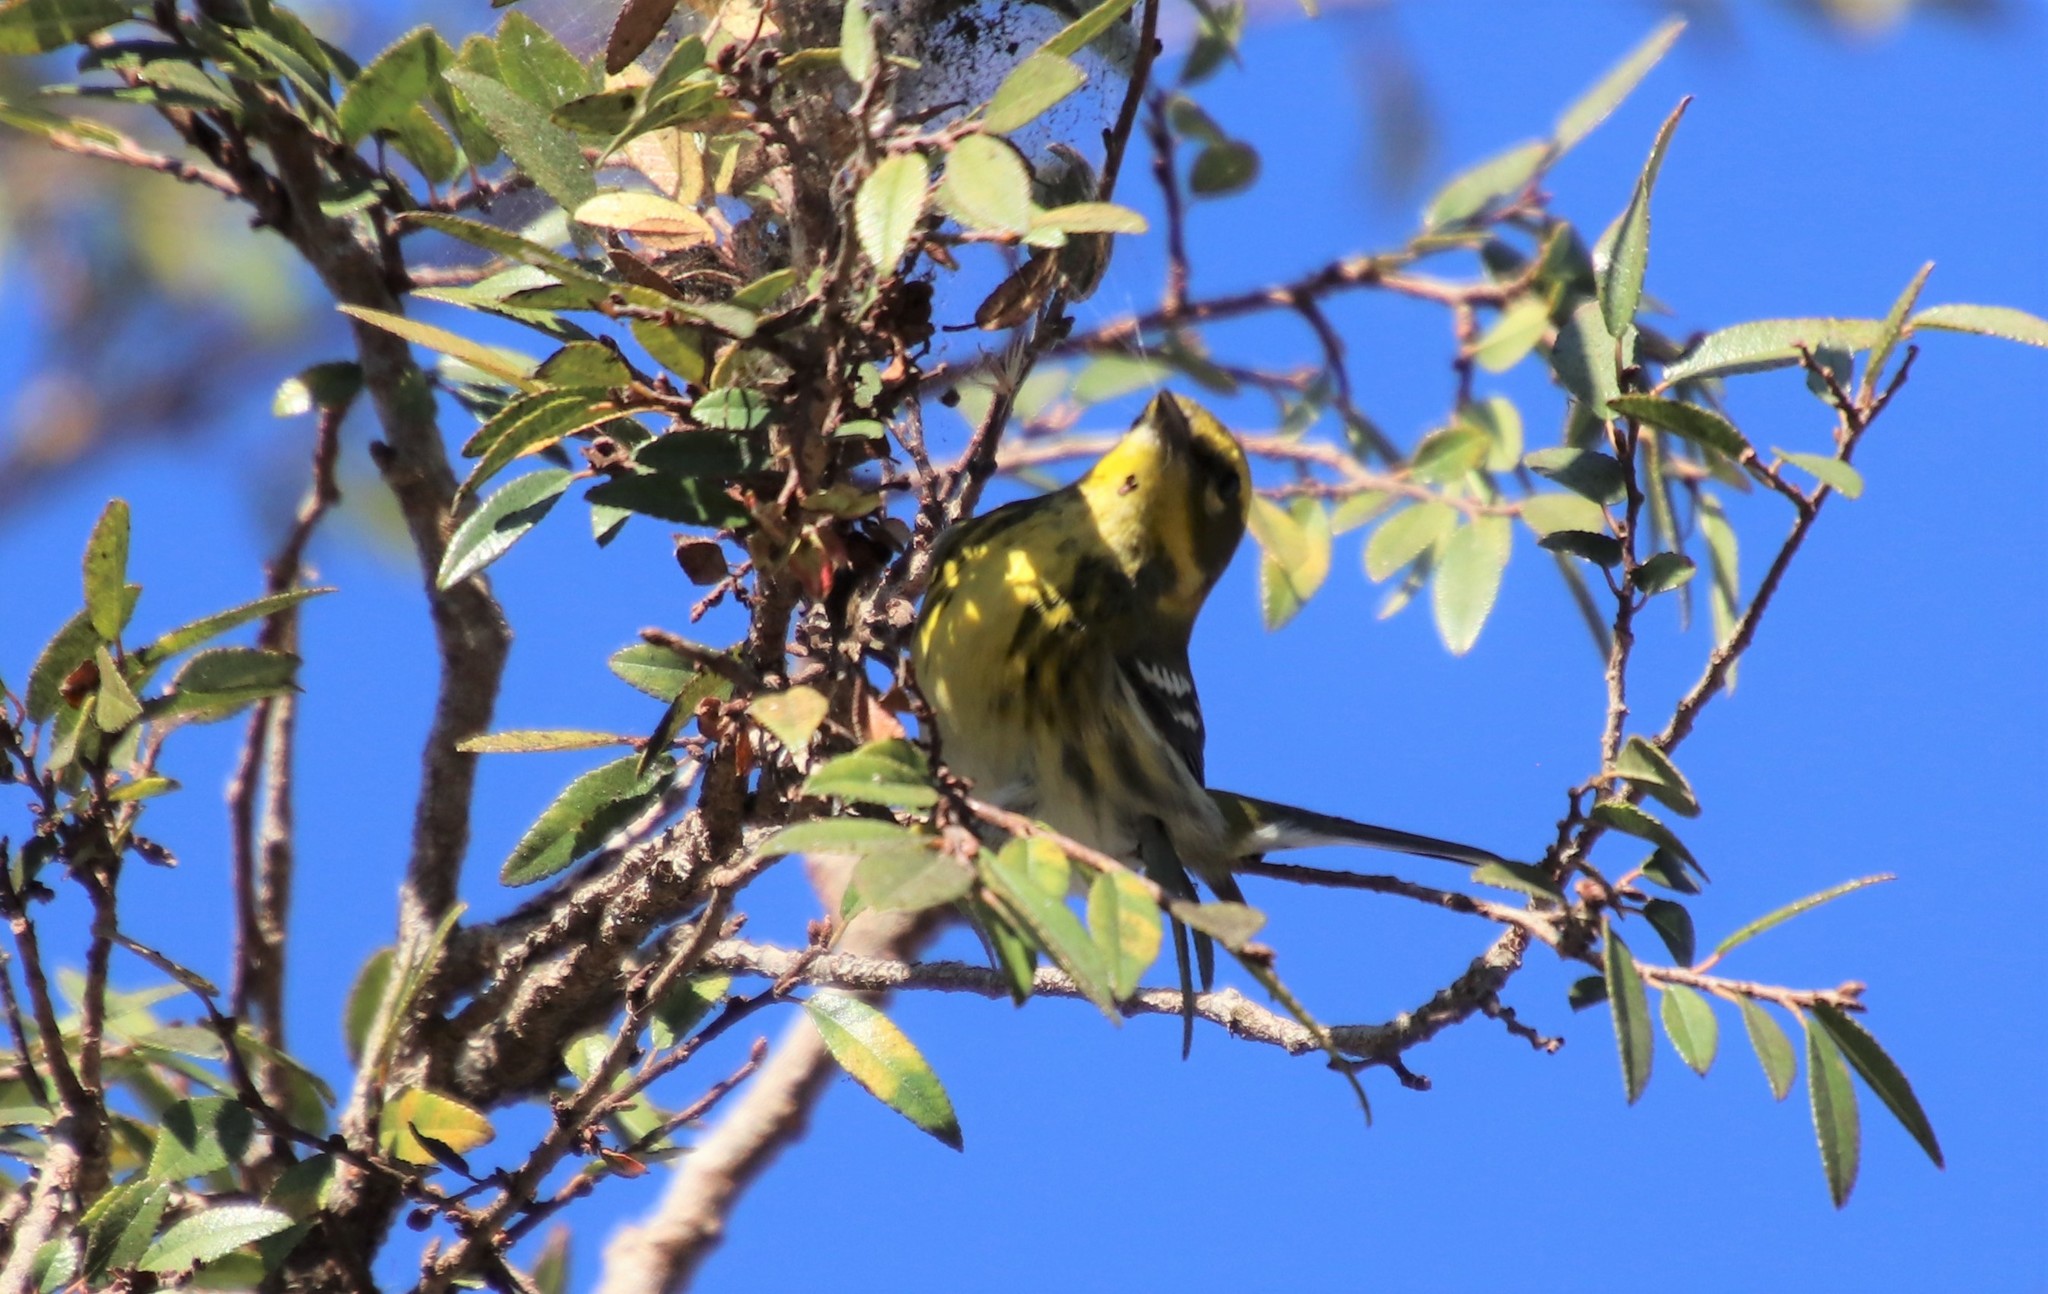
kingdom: Animalia
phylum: Chordata
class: Aves
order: Passeriformes
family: Parulidae
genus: Setophaga
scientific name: Setophaga townsendi
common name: Townsend's warbler
